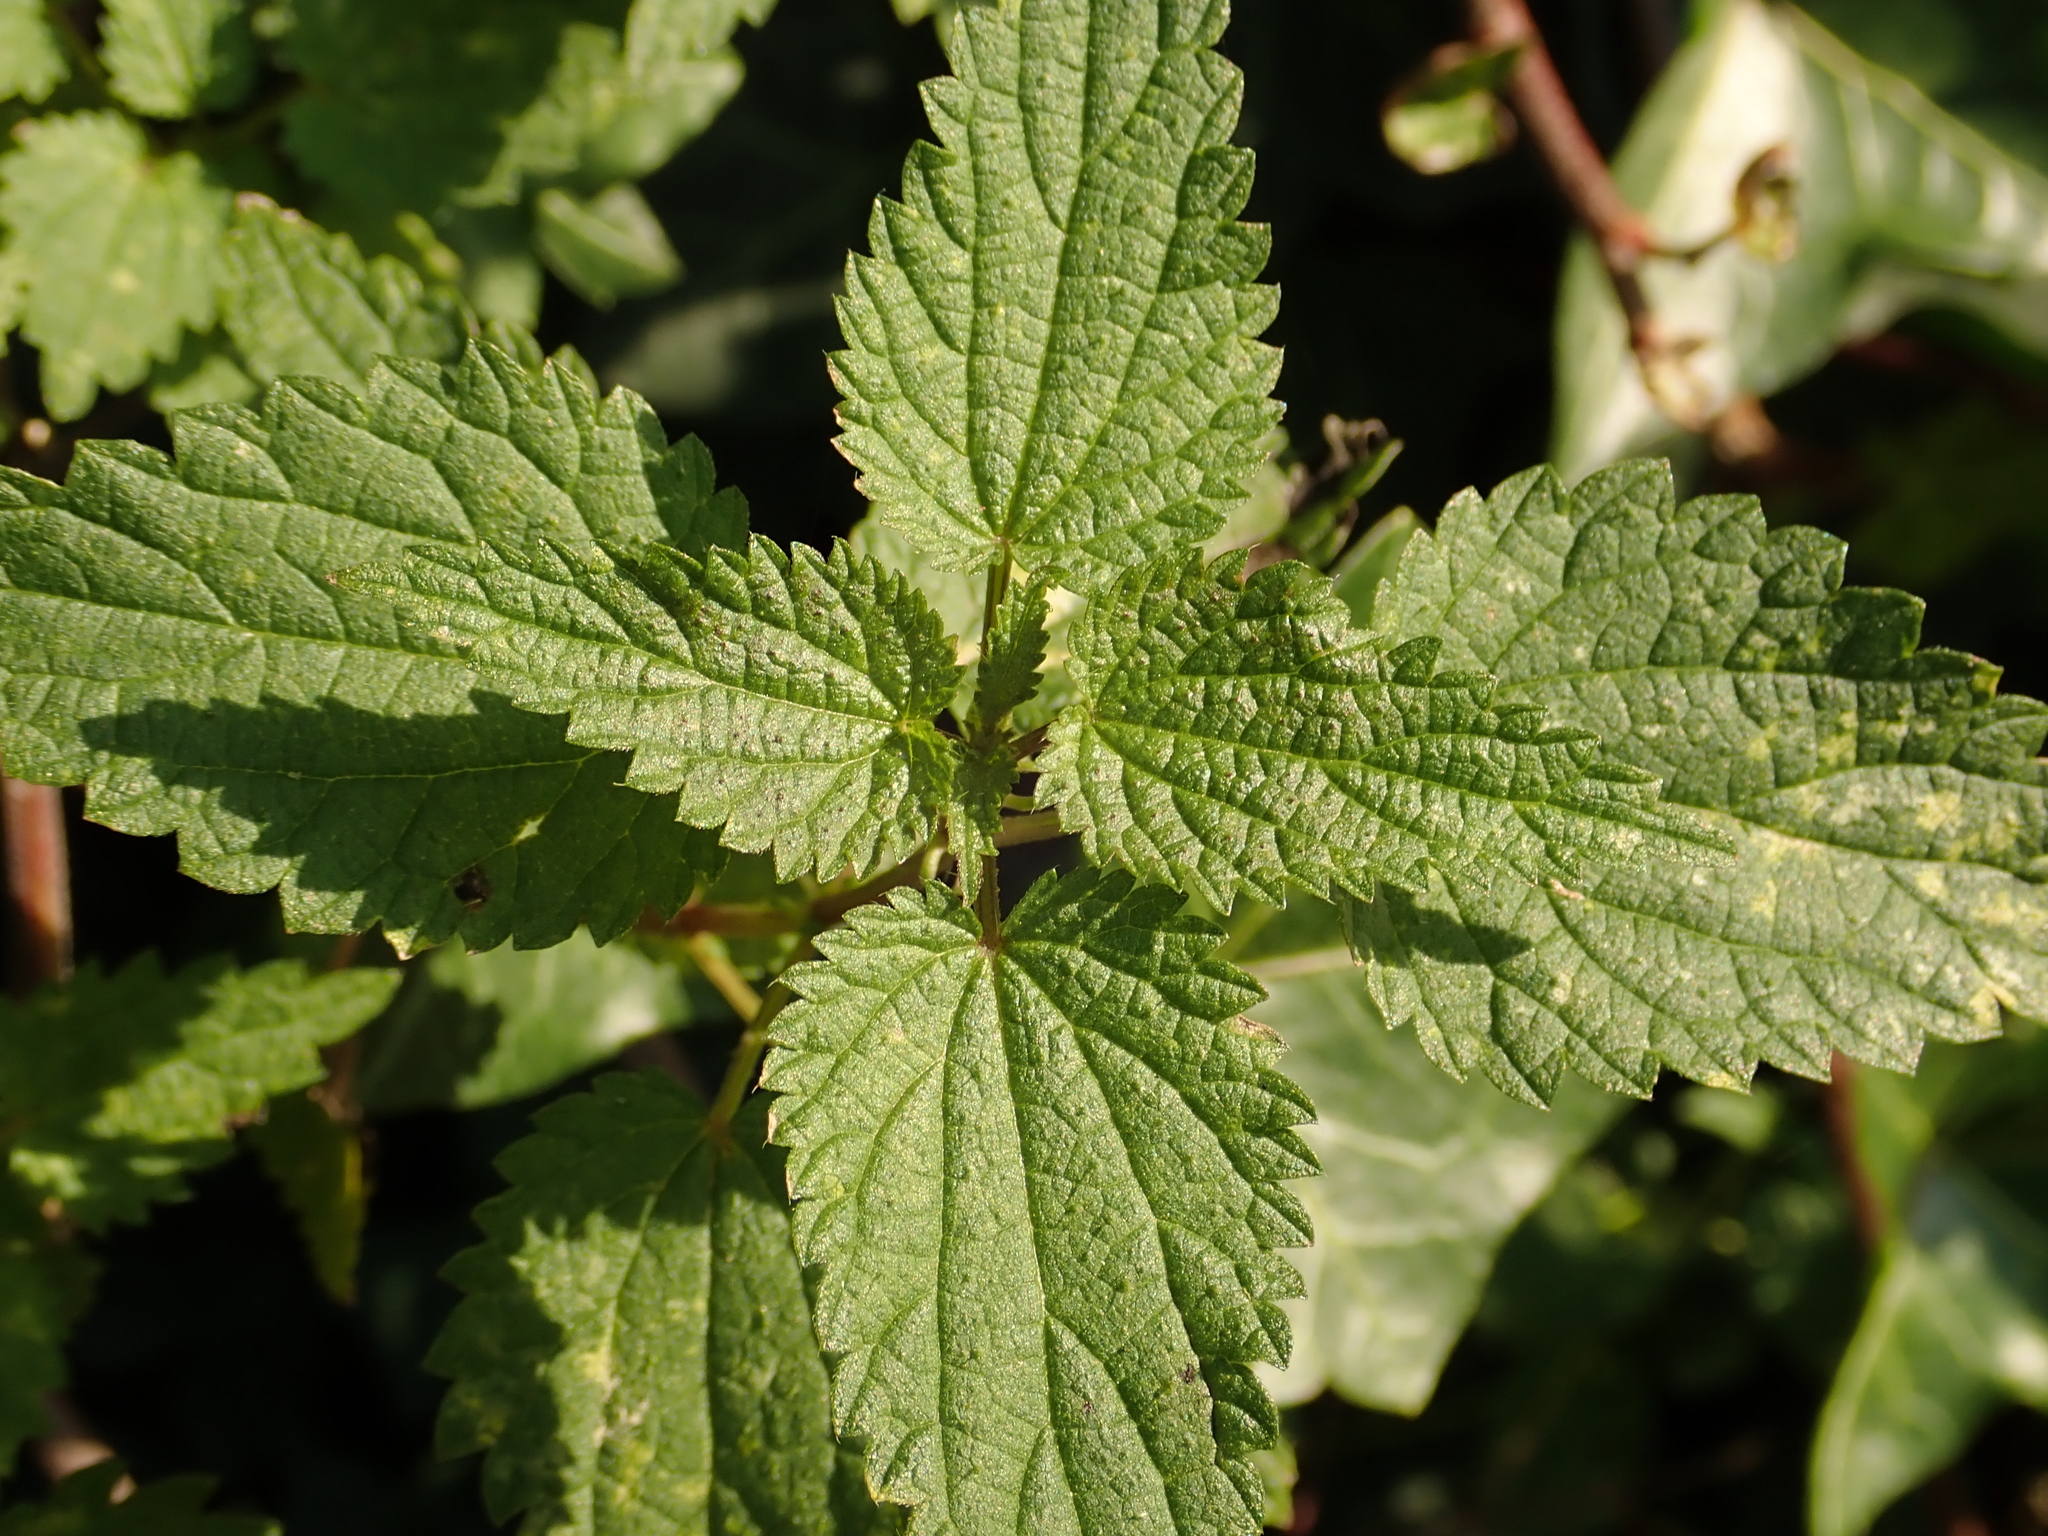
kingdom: Plantae
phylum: Tracheophyta
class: Magnoliopsida
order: Rosales
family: Urticaceae
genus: Urtica
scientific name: Urtica dioica
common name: Common nettle
